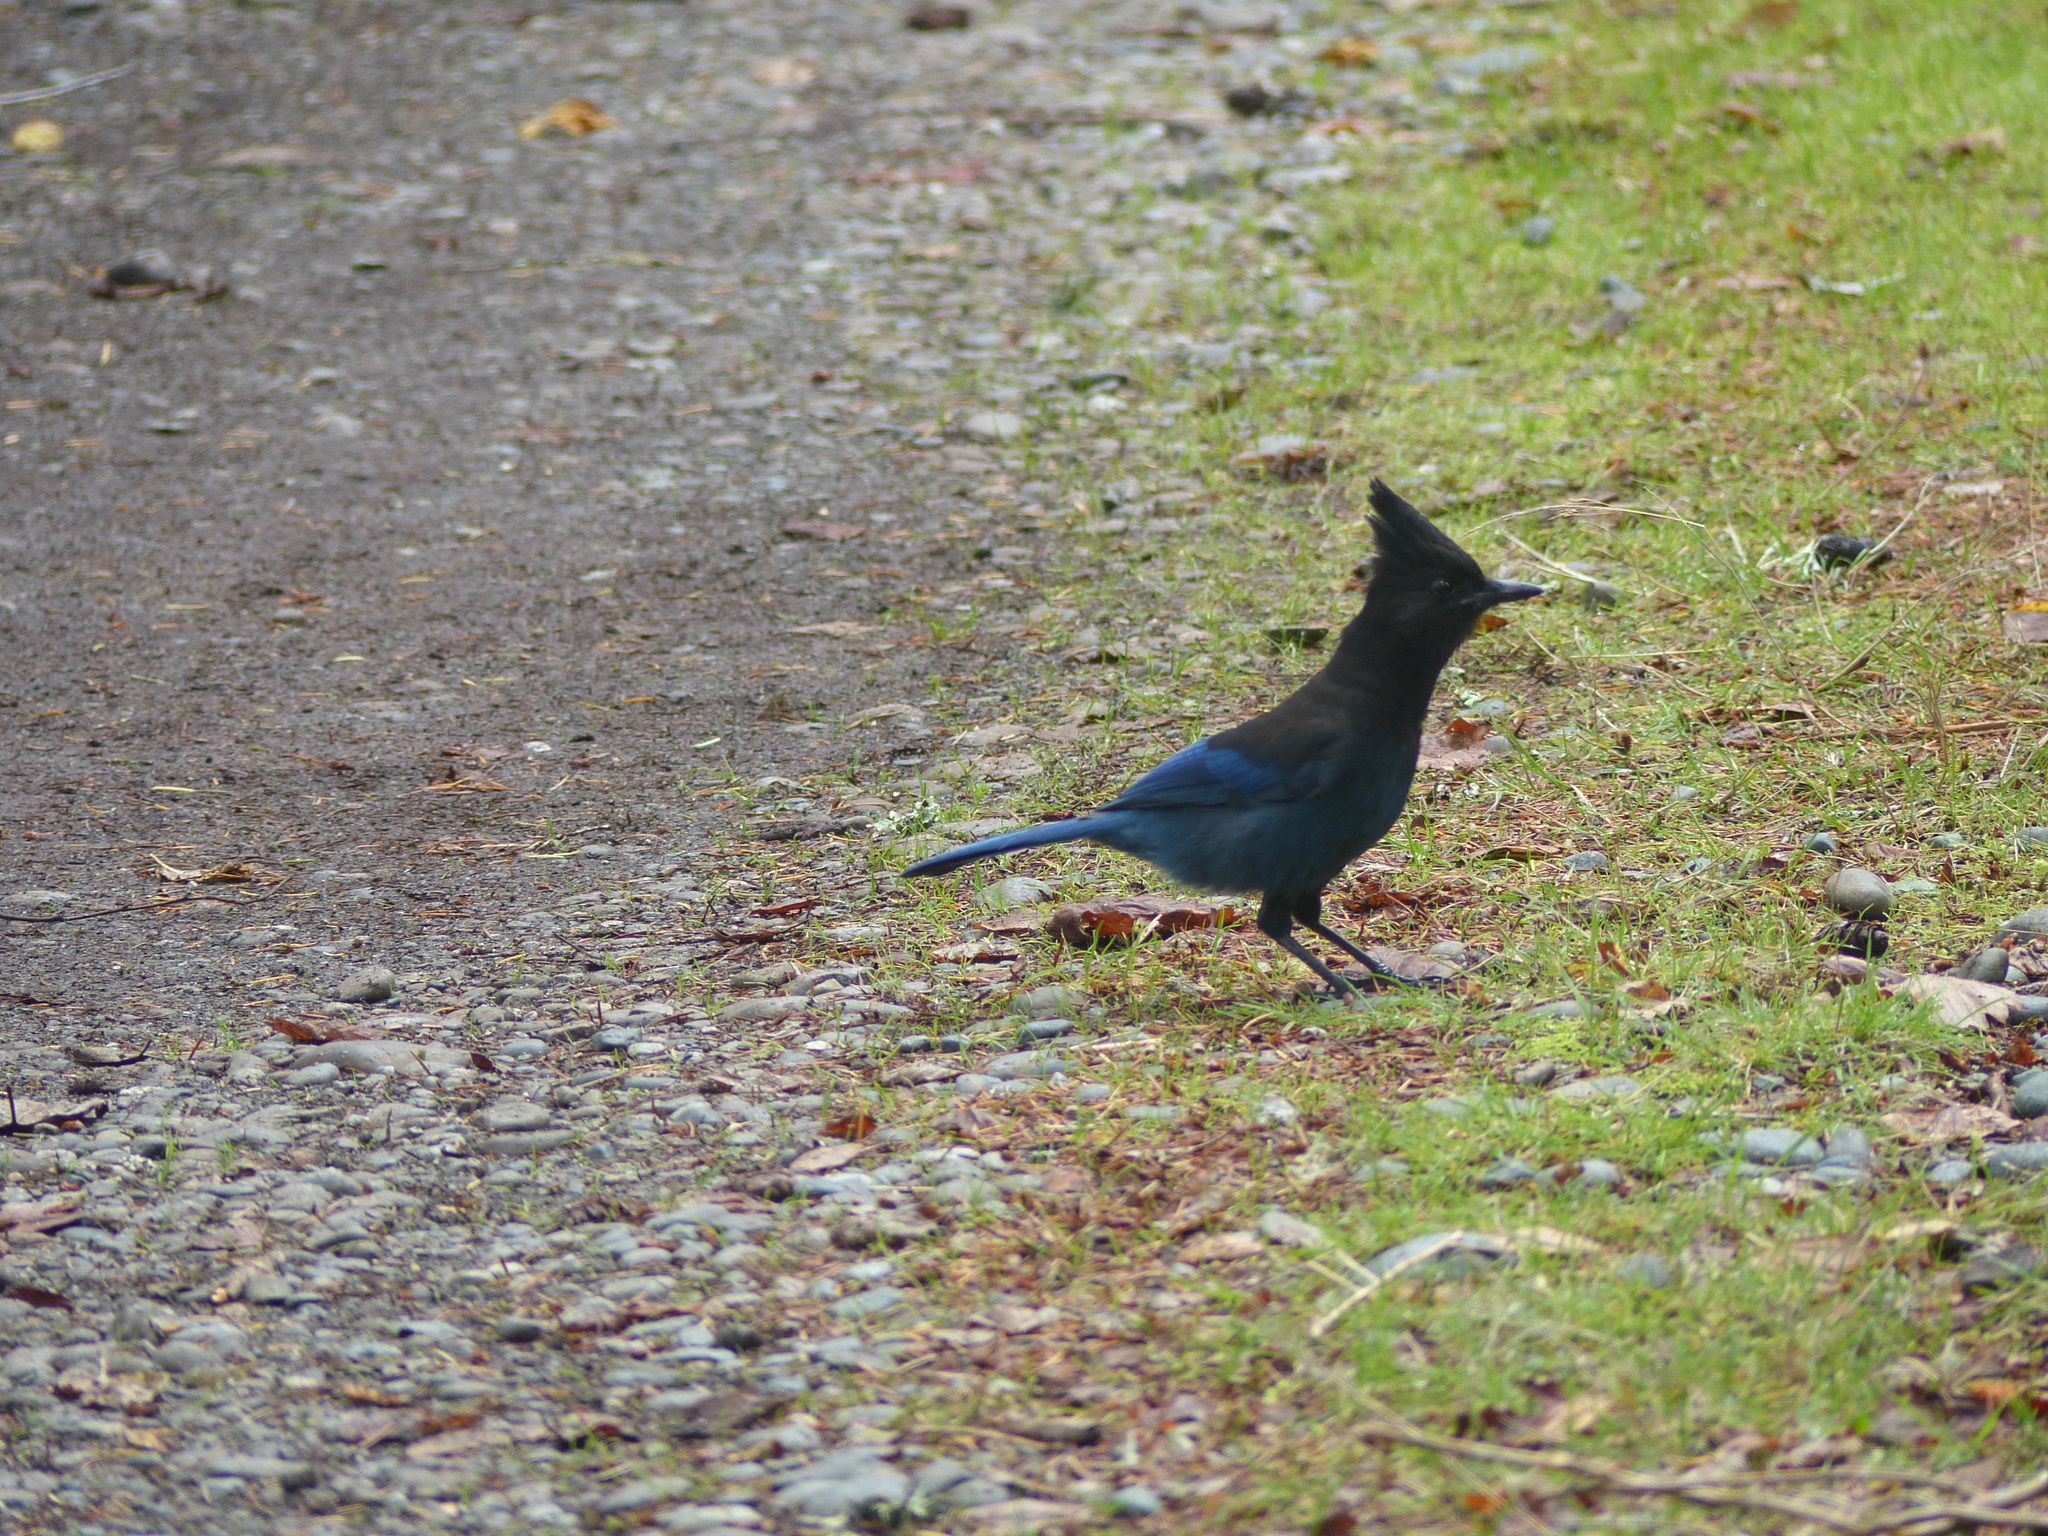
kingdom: Animalia
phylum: Chordata
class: Aves
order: Passeriformes
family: Corvidae
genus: Cyanocitta
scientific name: Cyanocitta stelleri
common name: Steller's jay
